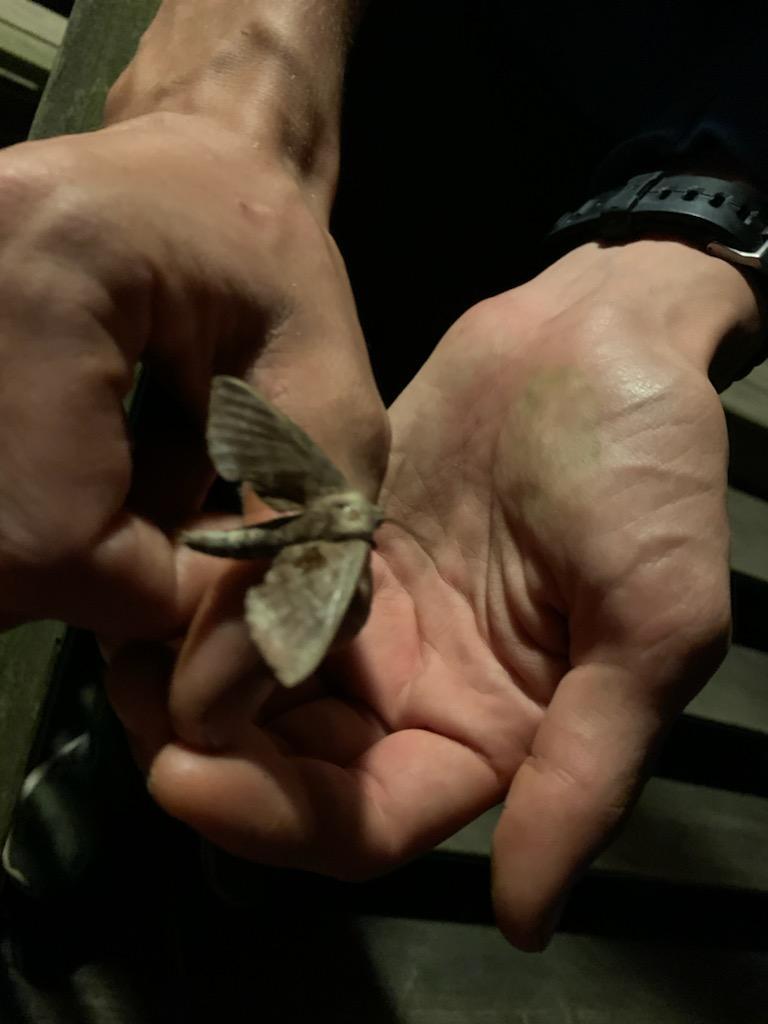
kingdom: Animalia
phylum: Arthropoda
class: Insecta
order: Lepidoptera
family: Sphingidae
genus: Amorpha
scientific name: Amorpha juglandis
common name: Walnut sphinx
